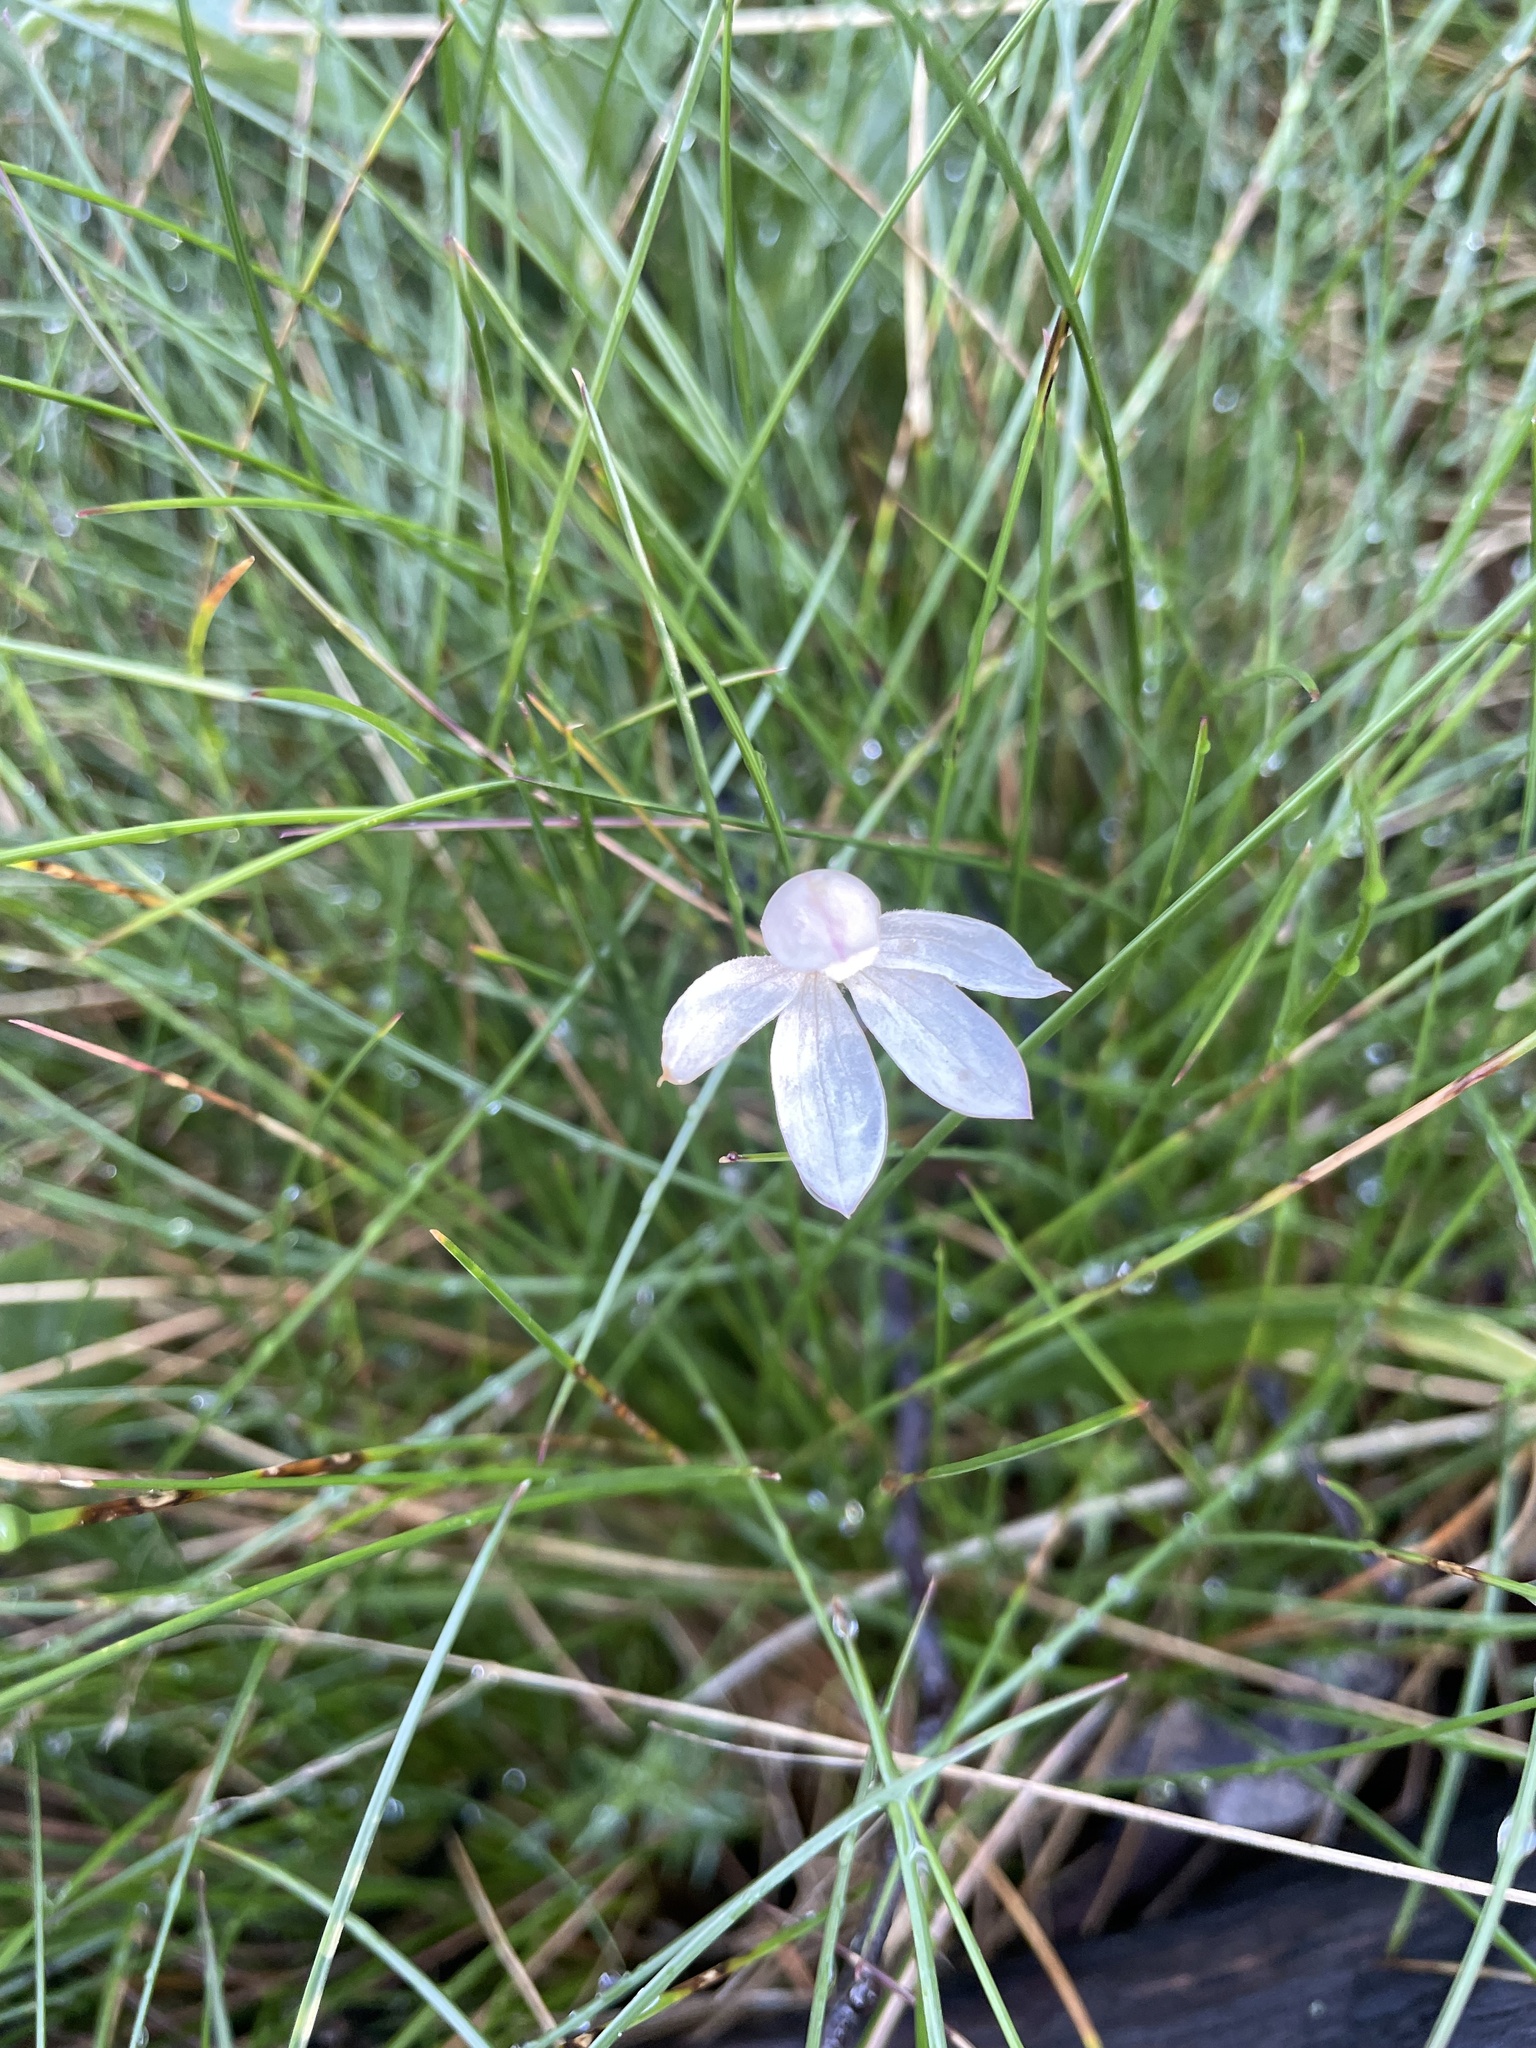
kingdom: Plantae
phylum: Tracheophyta
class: Liliopsida
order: Asparagales
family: Orchidaceae
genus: Caladenia
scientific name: Caladenia alpina
